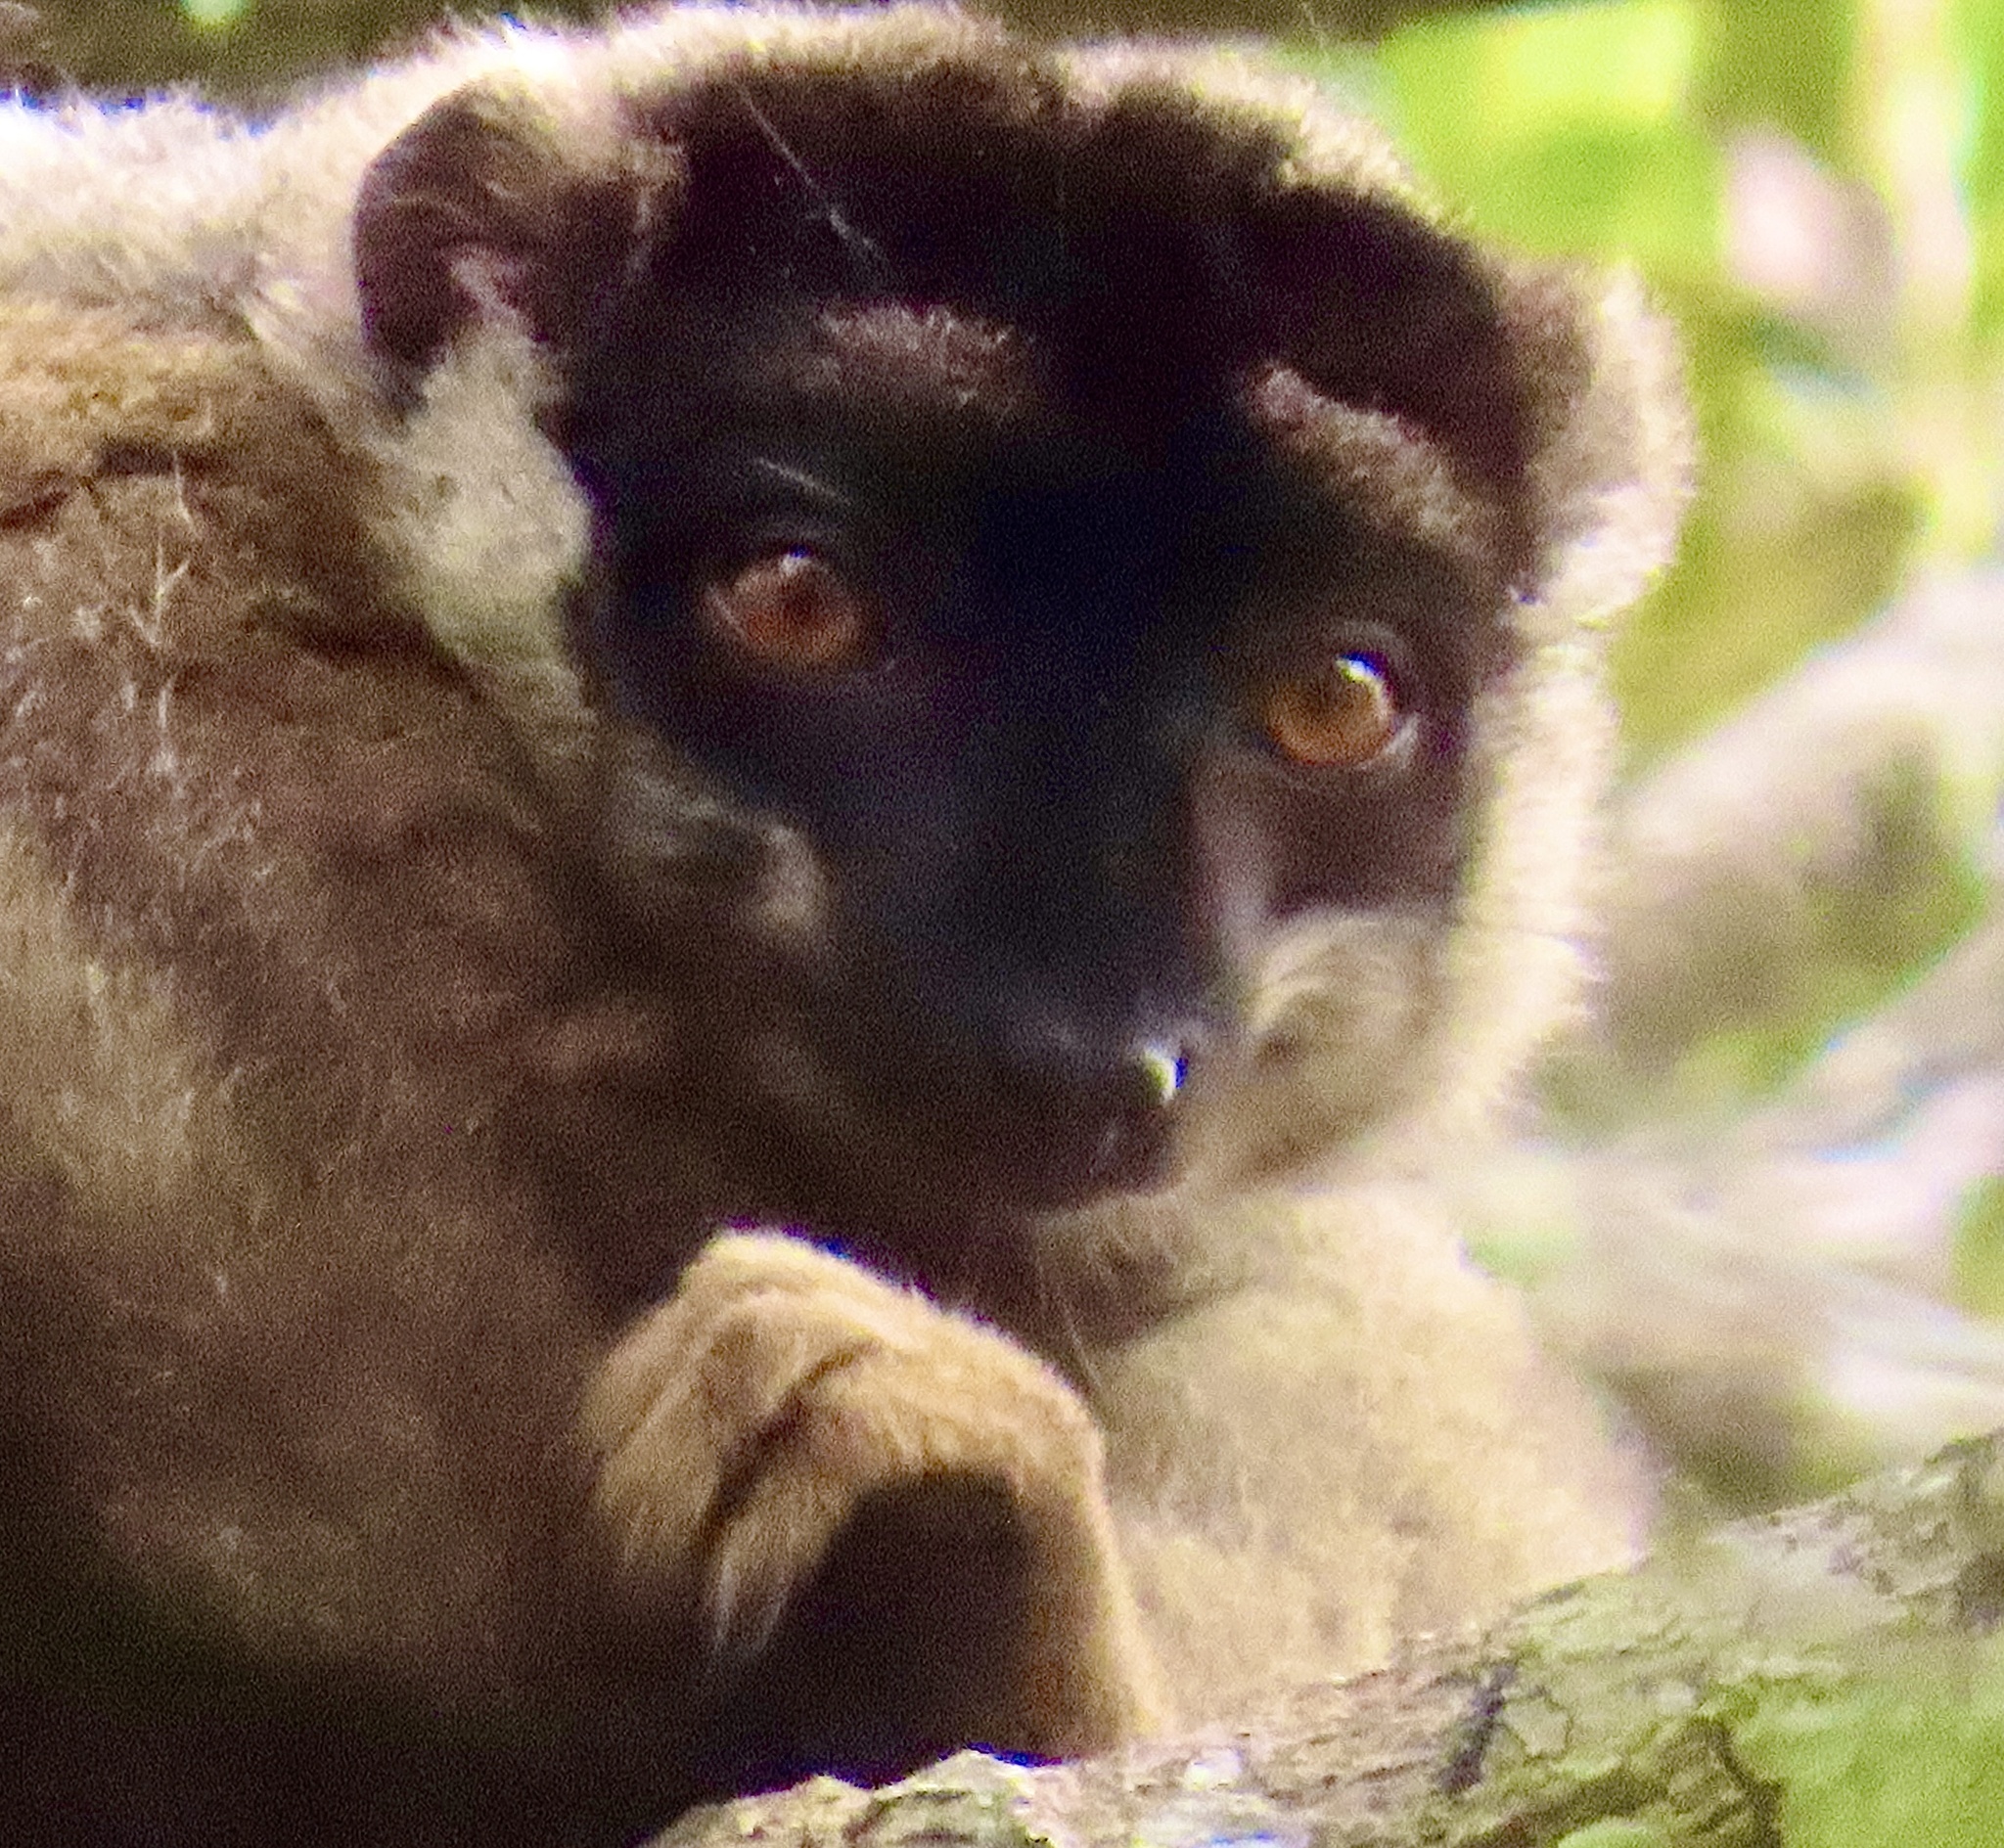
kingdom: Animalia
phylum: Chordata
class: Mammalia
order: Primates
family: Lemuridae
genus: Eulemur
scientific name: Eulemur fulvus
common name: Brown lemur
